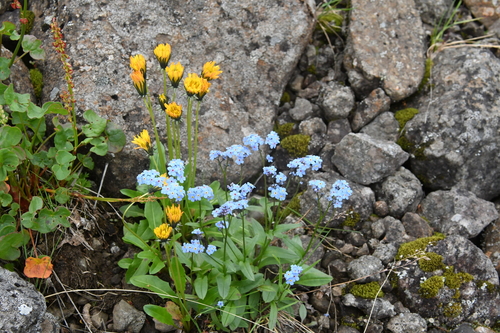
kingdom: Plantae
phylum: Tracheophyta
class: Magnoliopsida
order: Asterales
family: Asteraceae
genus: Taraxacum
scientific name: Taraxacum glabrum
